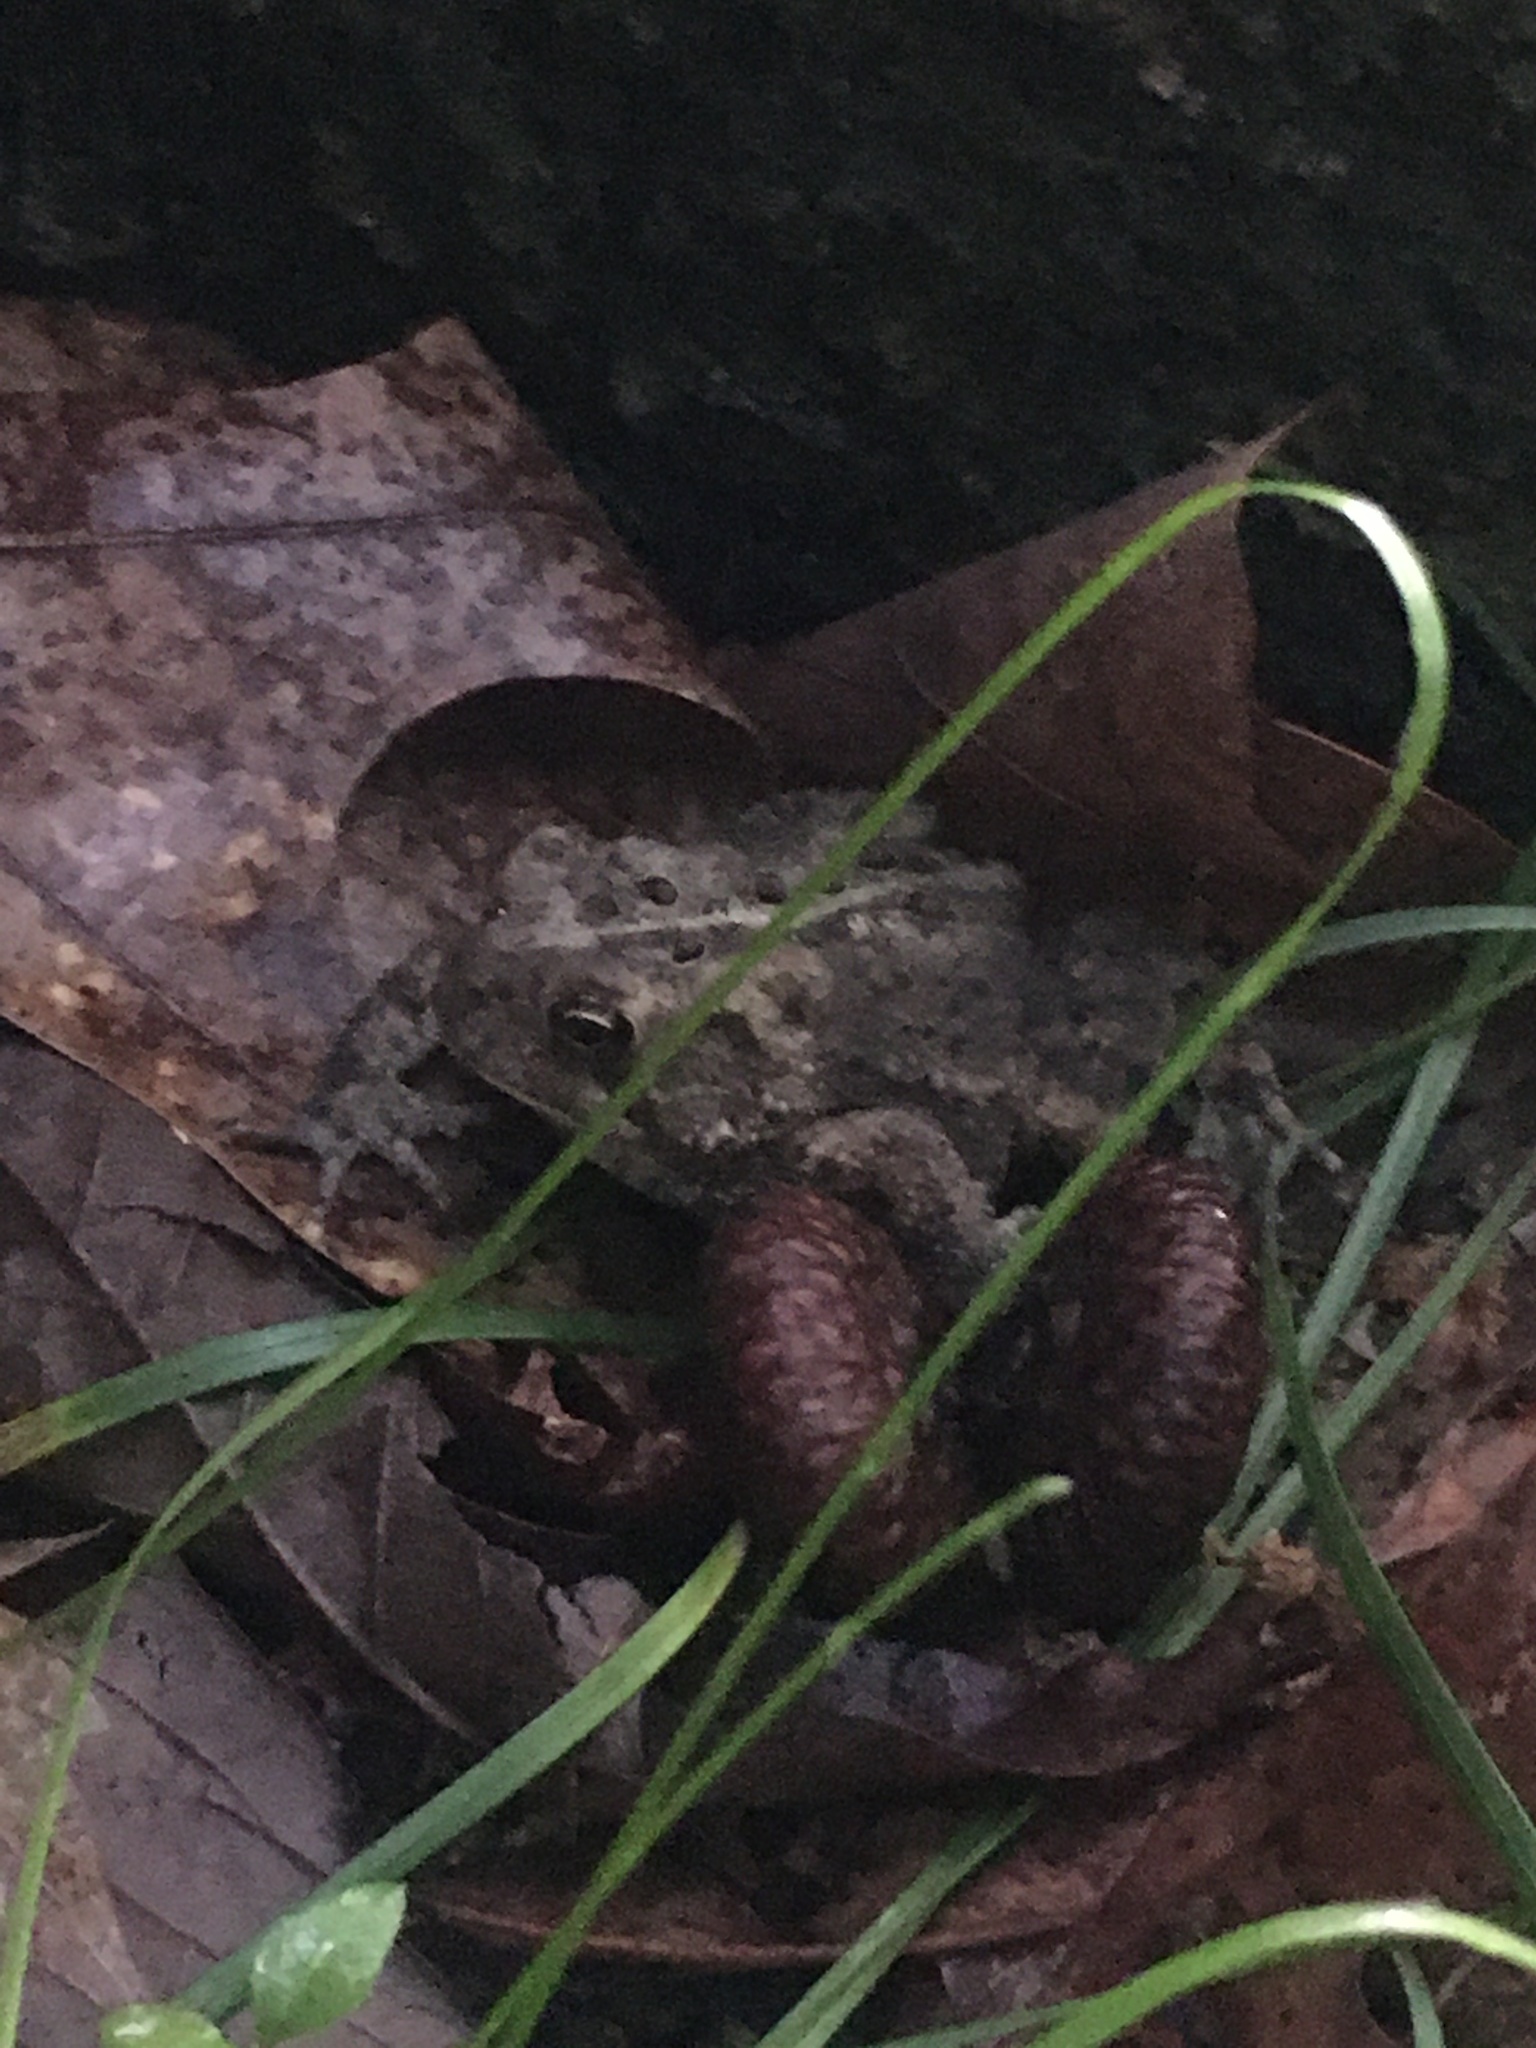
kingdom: Animalia
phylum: Chordata
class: Amphibia
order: Anura
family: Bufonidae
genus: Anaxyrus
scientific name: Anaxyrus americanus
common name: American toad
